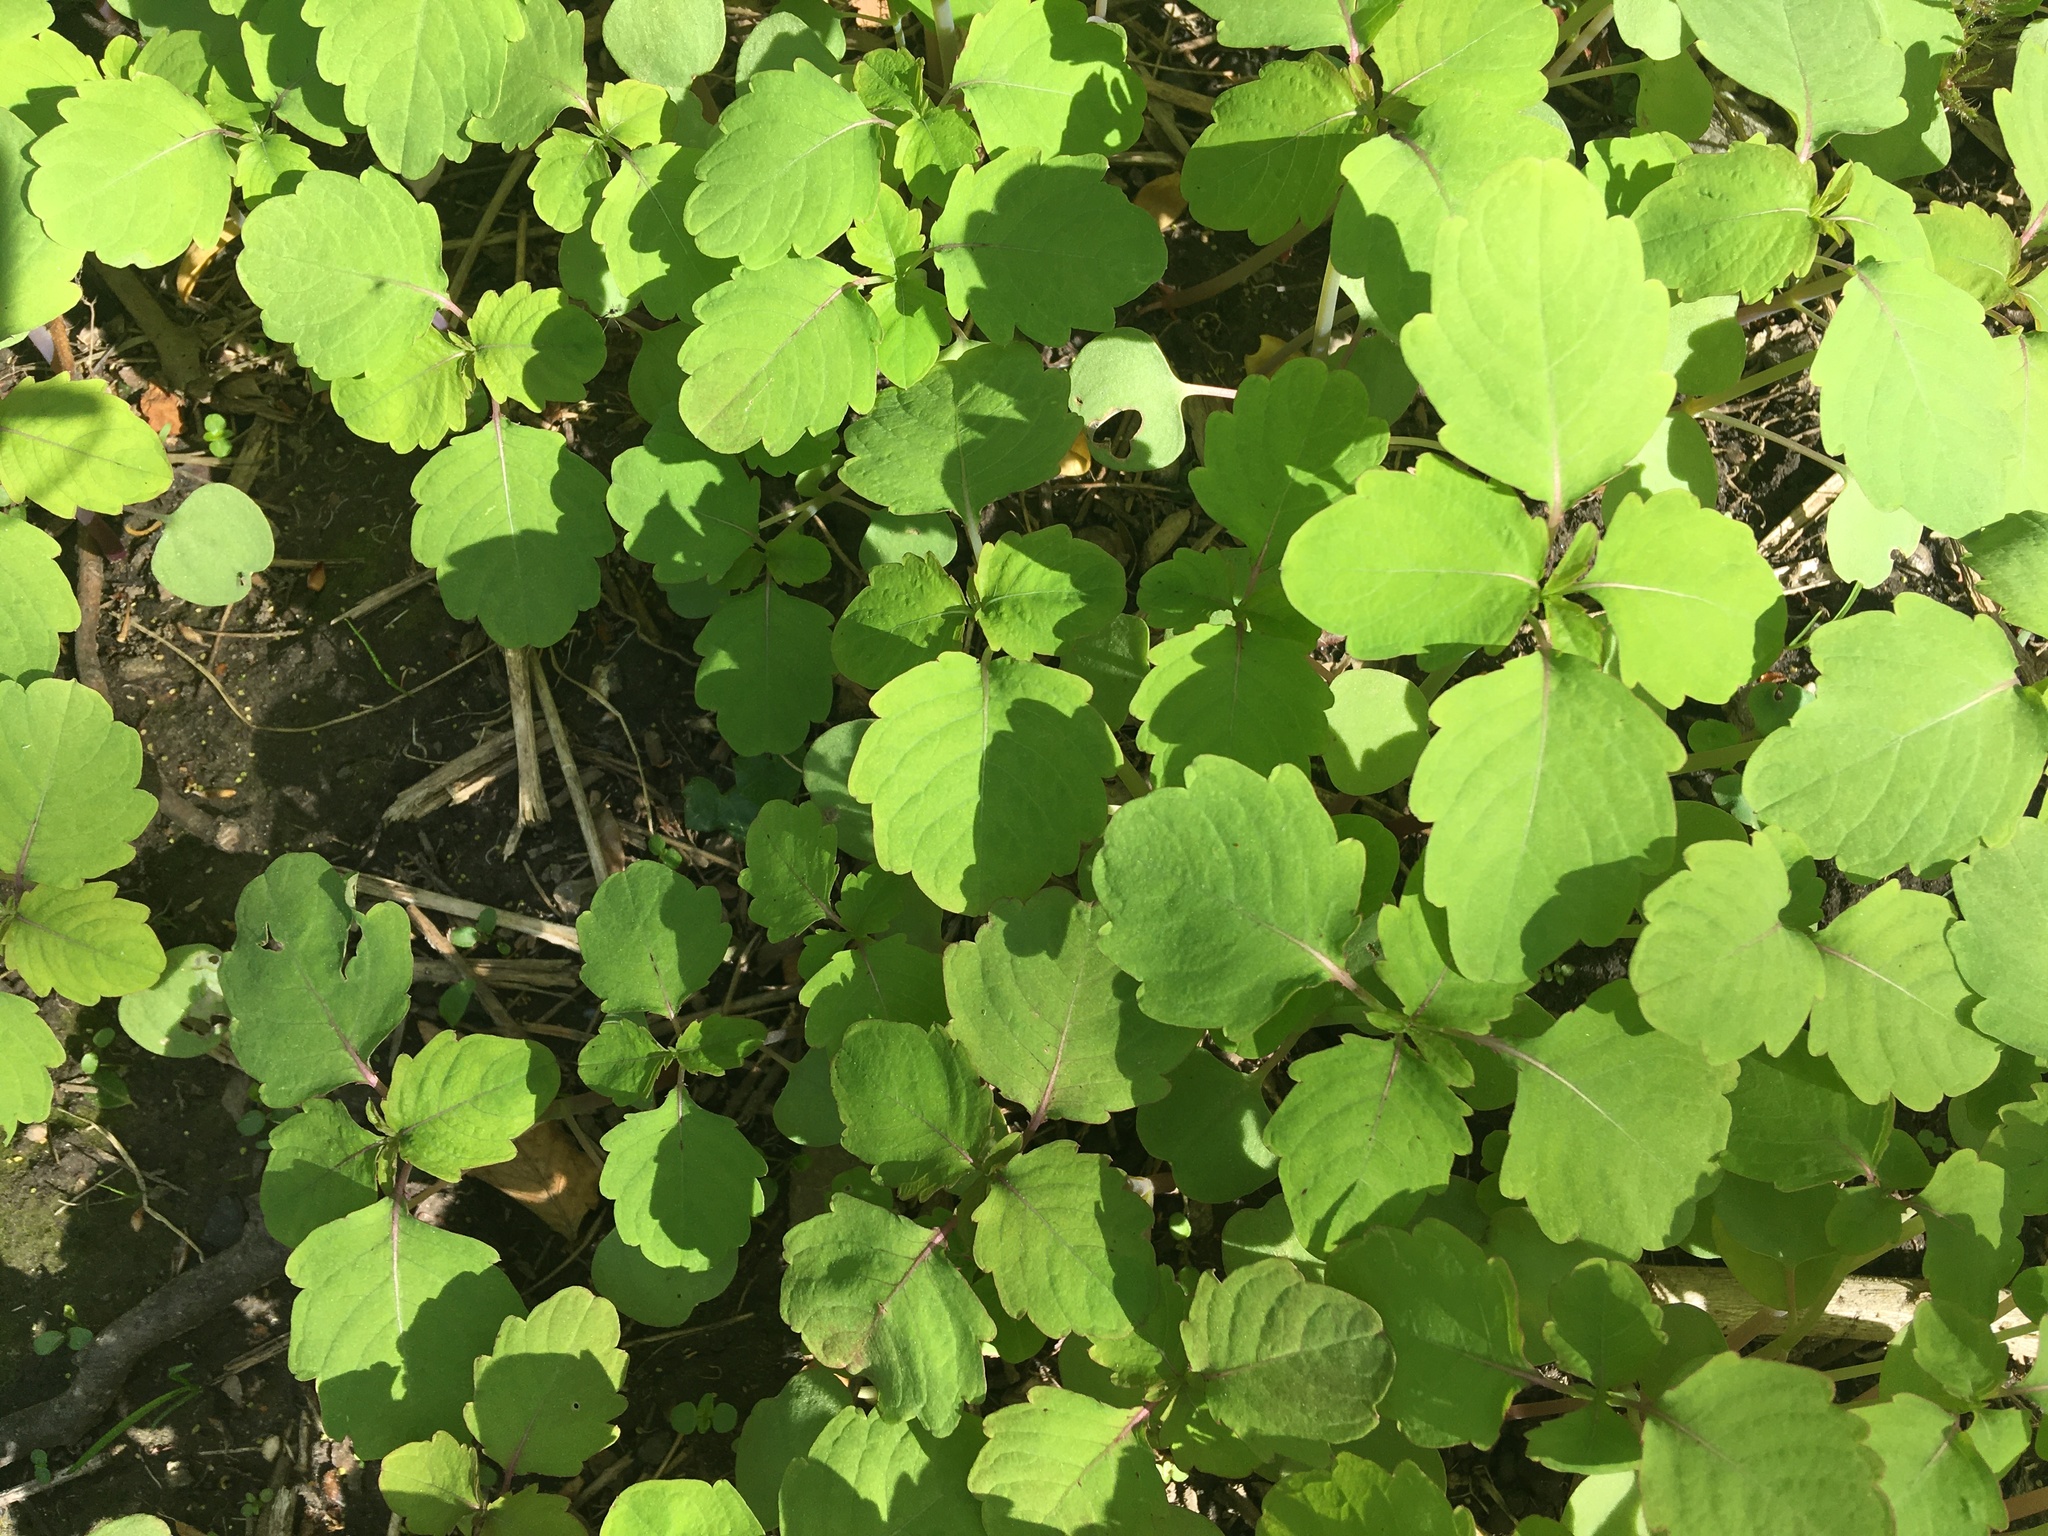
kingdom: Plantae
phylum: Tracheophyta
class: Magnoliopsida
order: Ericales
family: Balsaminaceae
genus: Impatiens
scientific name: Impatiens capensis
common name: Orange balsam
